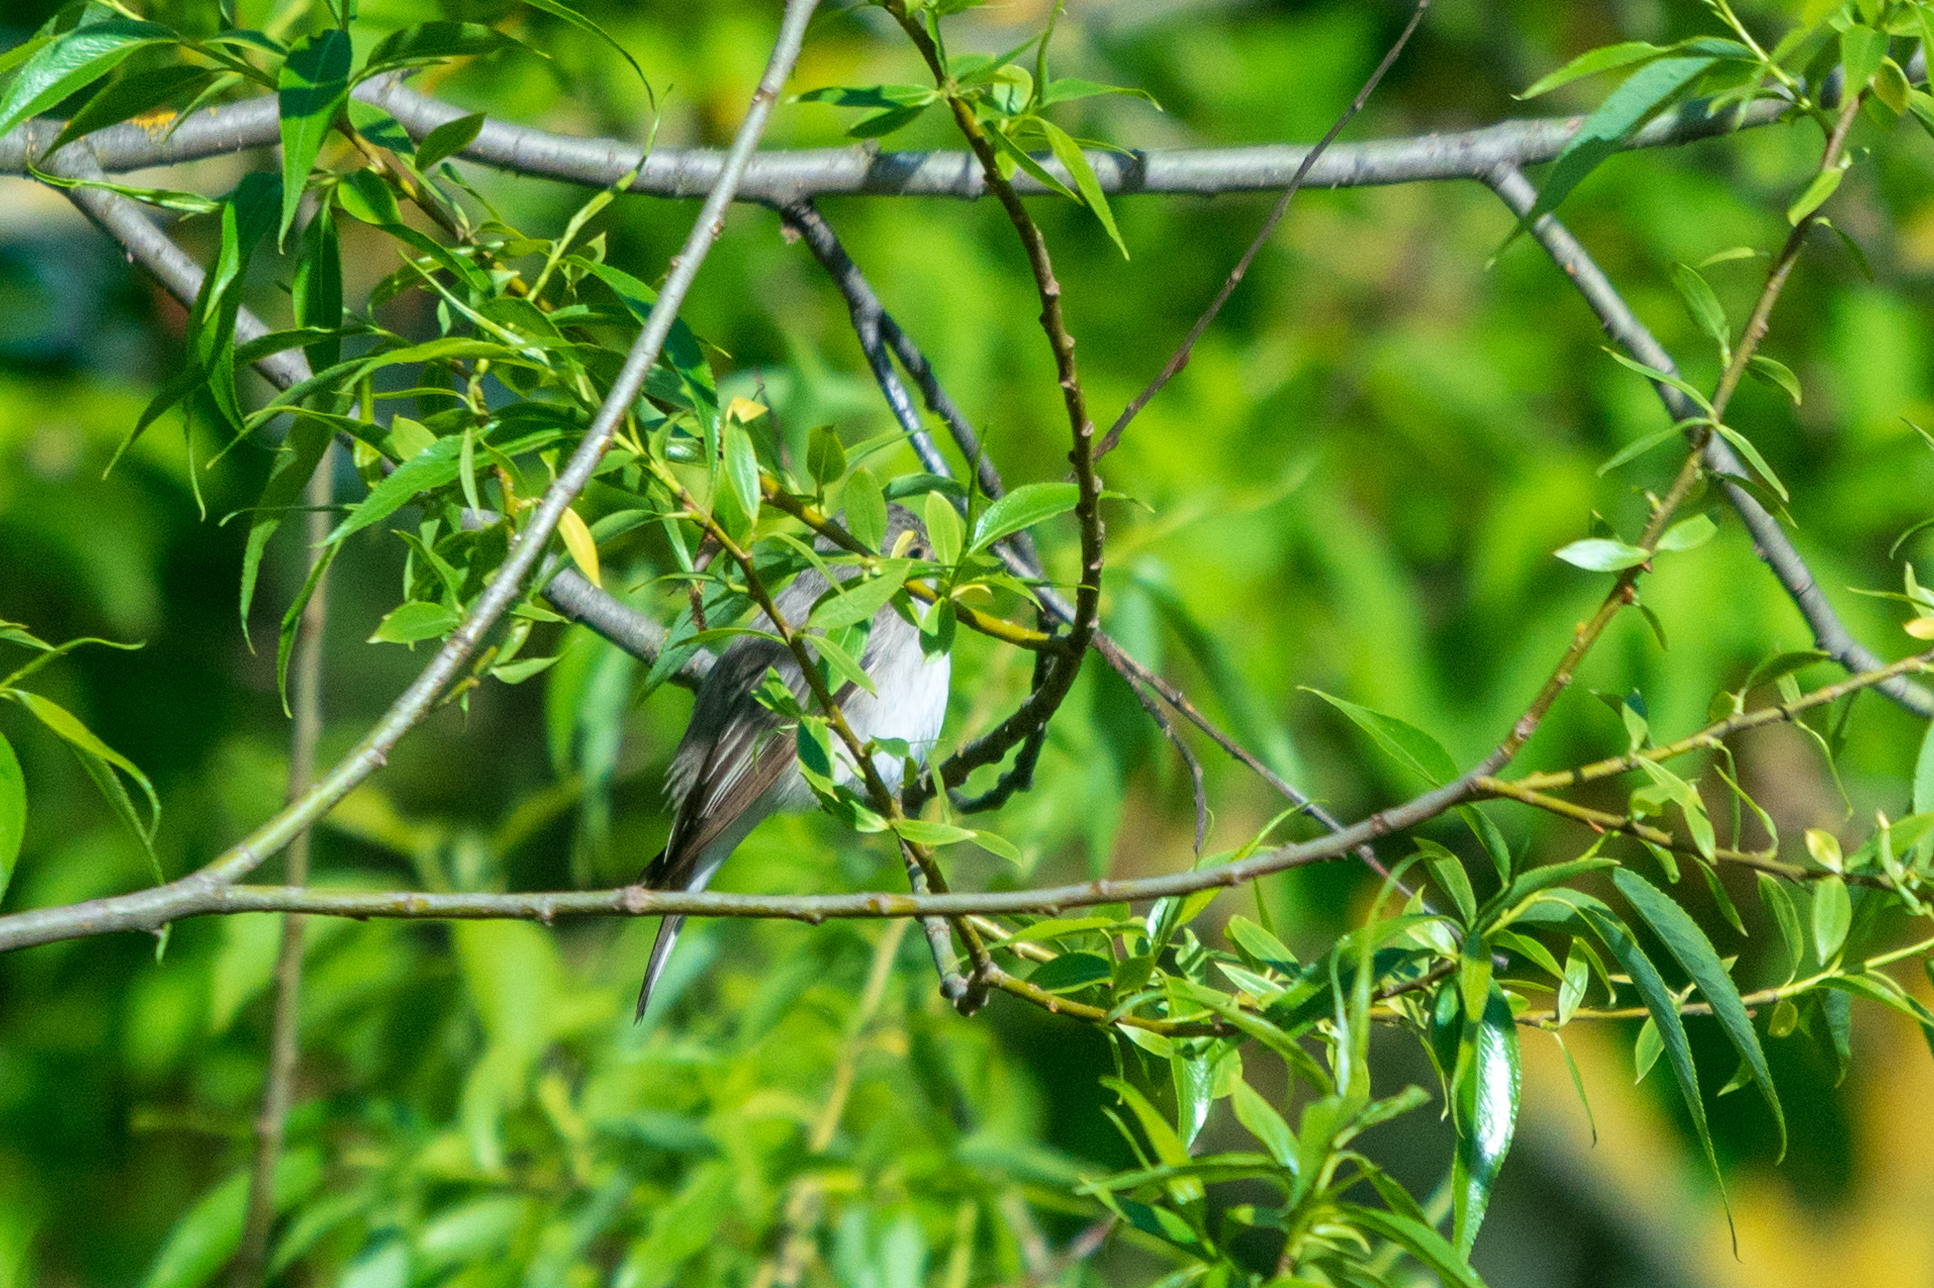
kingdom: Animalia
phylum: Chordata
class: Aves
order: Passeriformes
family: Muscicapidae
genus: Muscicapa
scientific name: Muscicapa striata
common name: Spotted flycatcher
